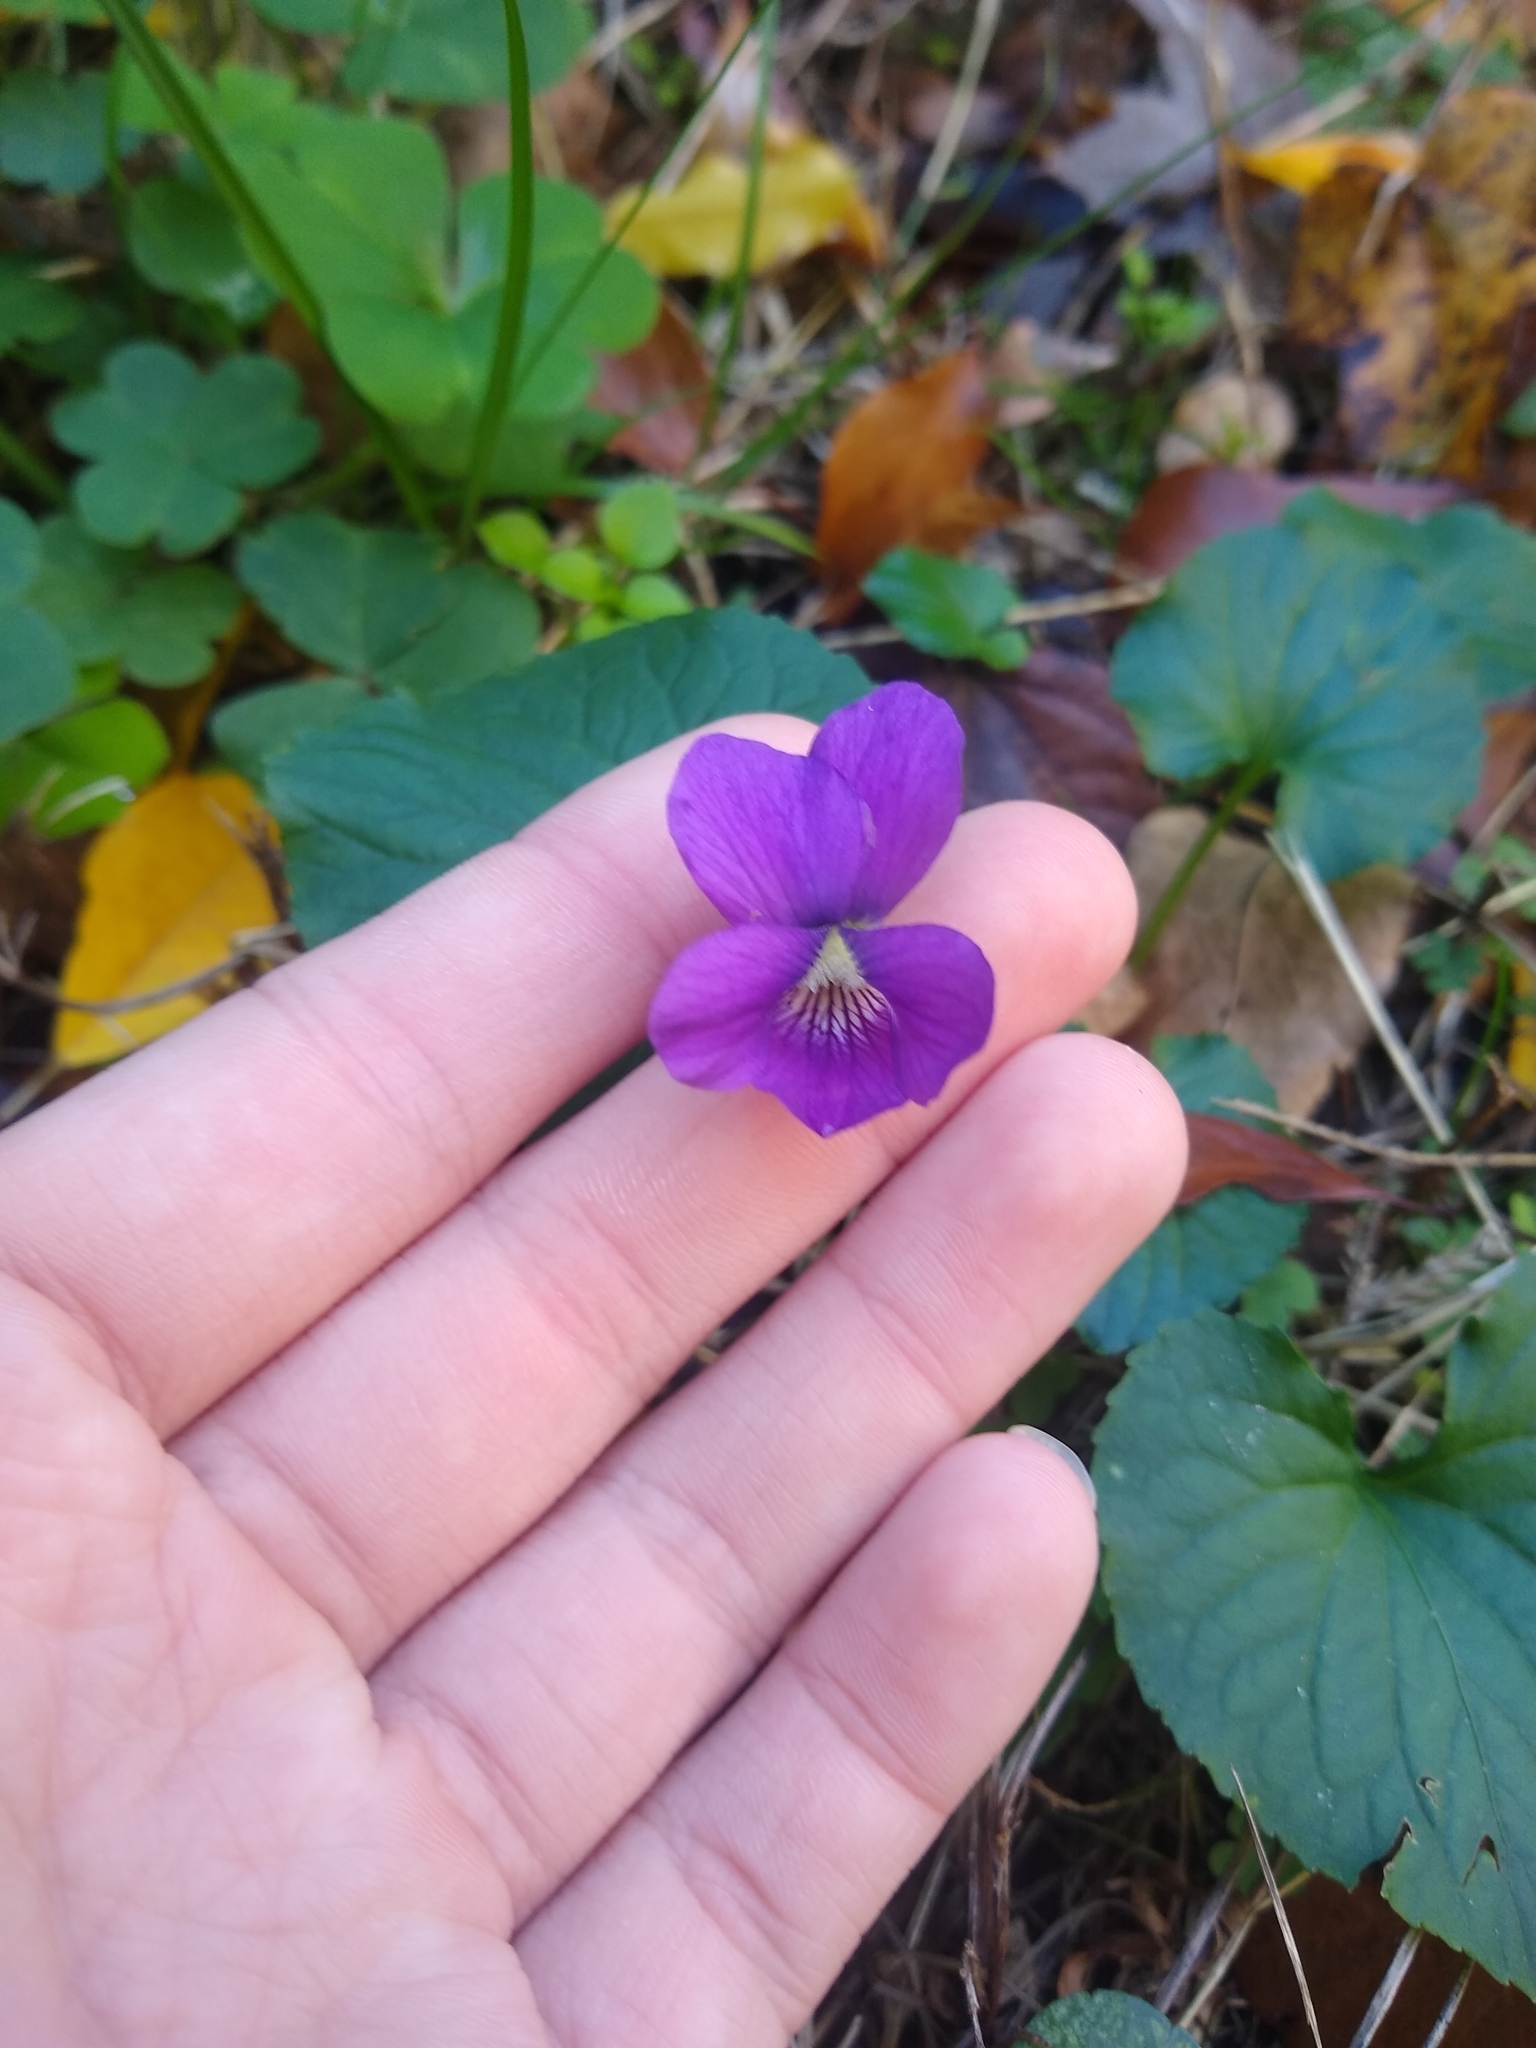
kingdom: Plantae
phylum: Tracheophyta
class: Magnoliopsida
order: Malpighiales
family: Violaceae
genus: Viola
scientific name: Viola sororia
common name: Dooryard violet
